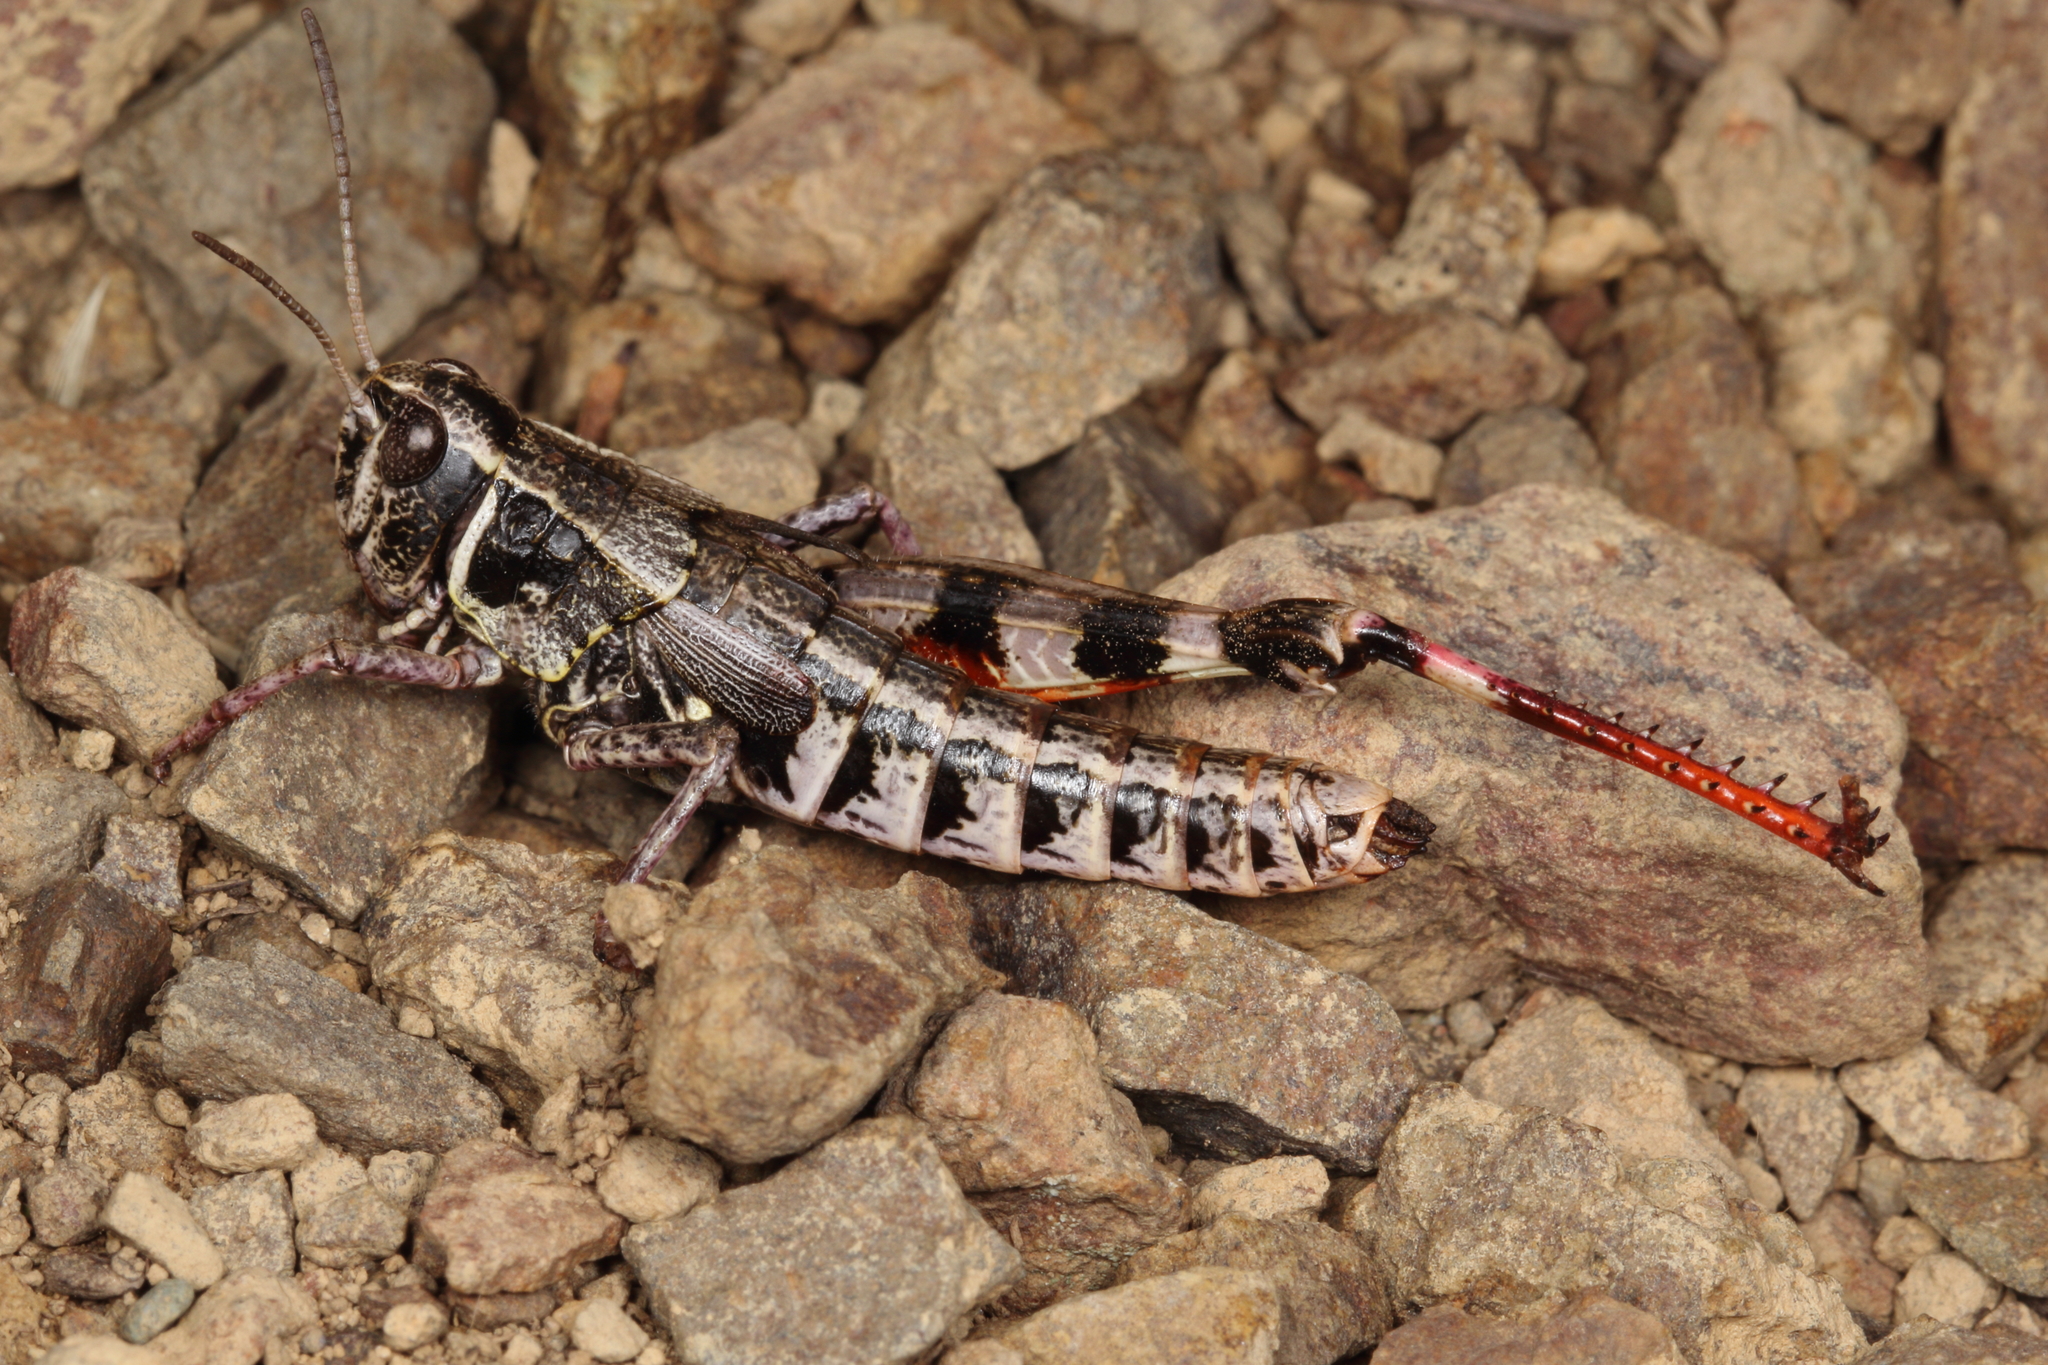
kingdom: Animalia
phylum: Arthropoda
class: Insecta
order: Orthoptera
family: Acrididae
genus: Sigaus
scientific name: Sigaus australis
